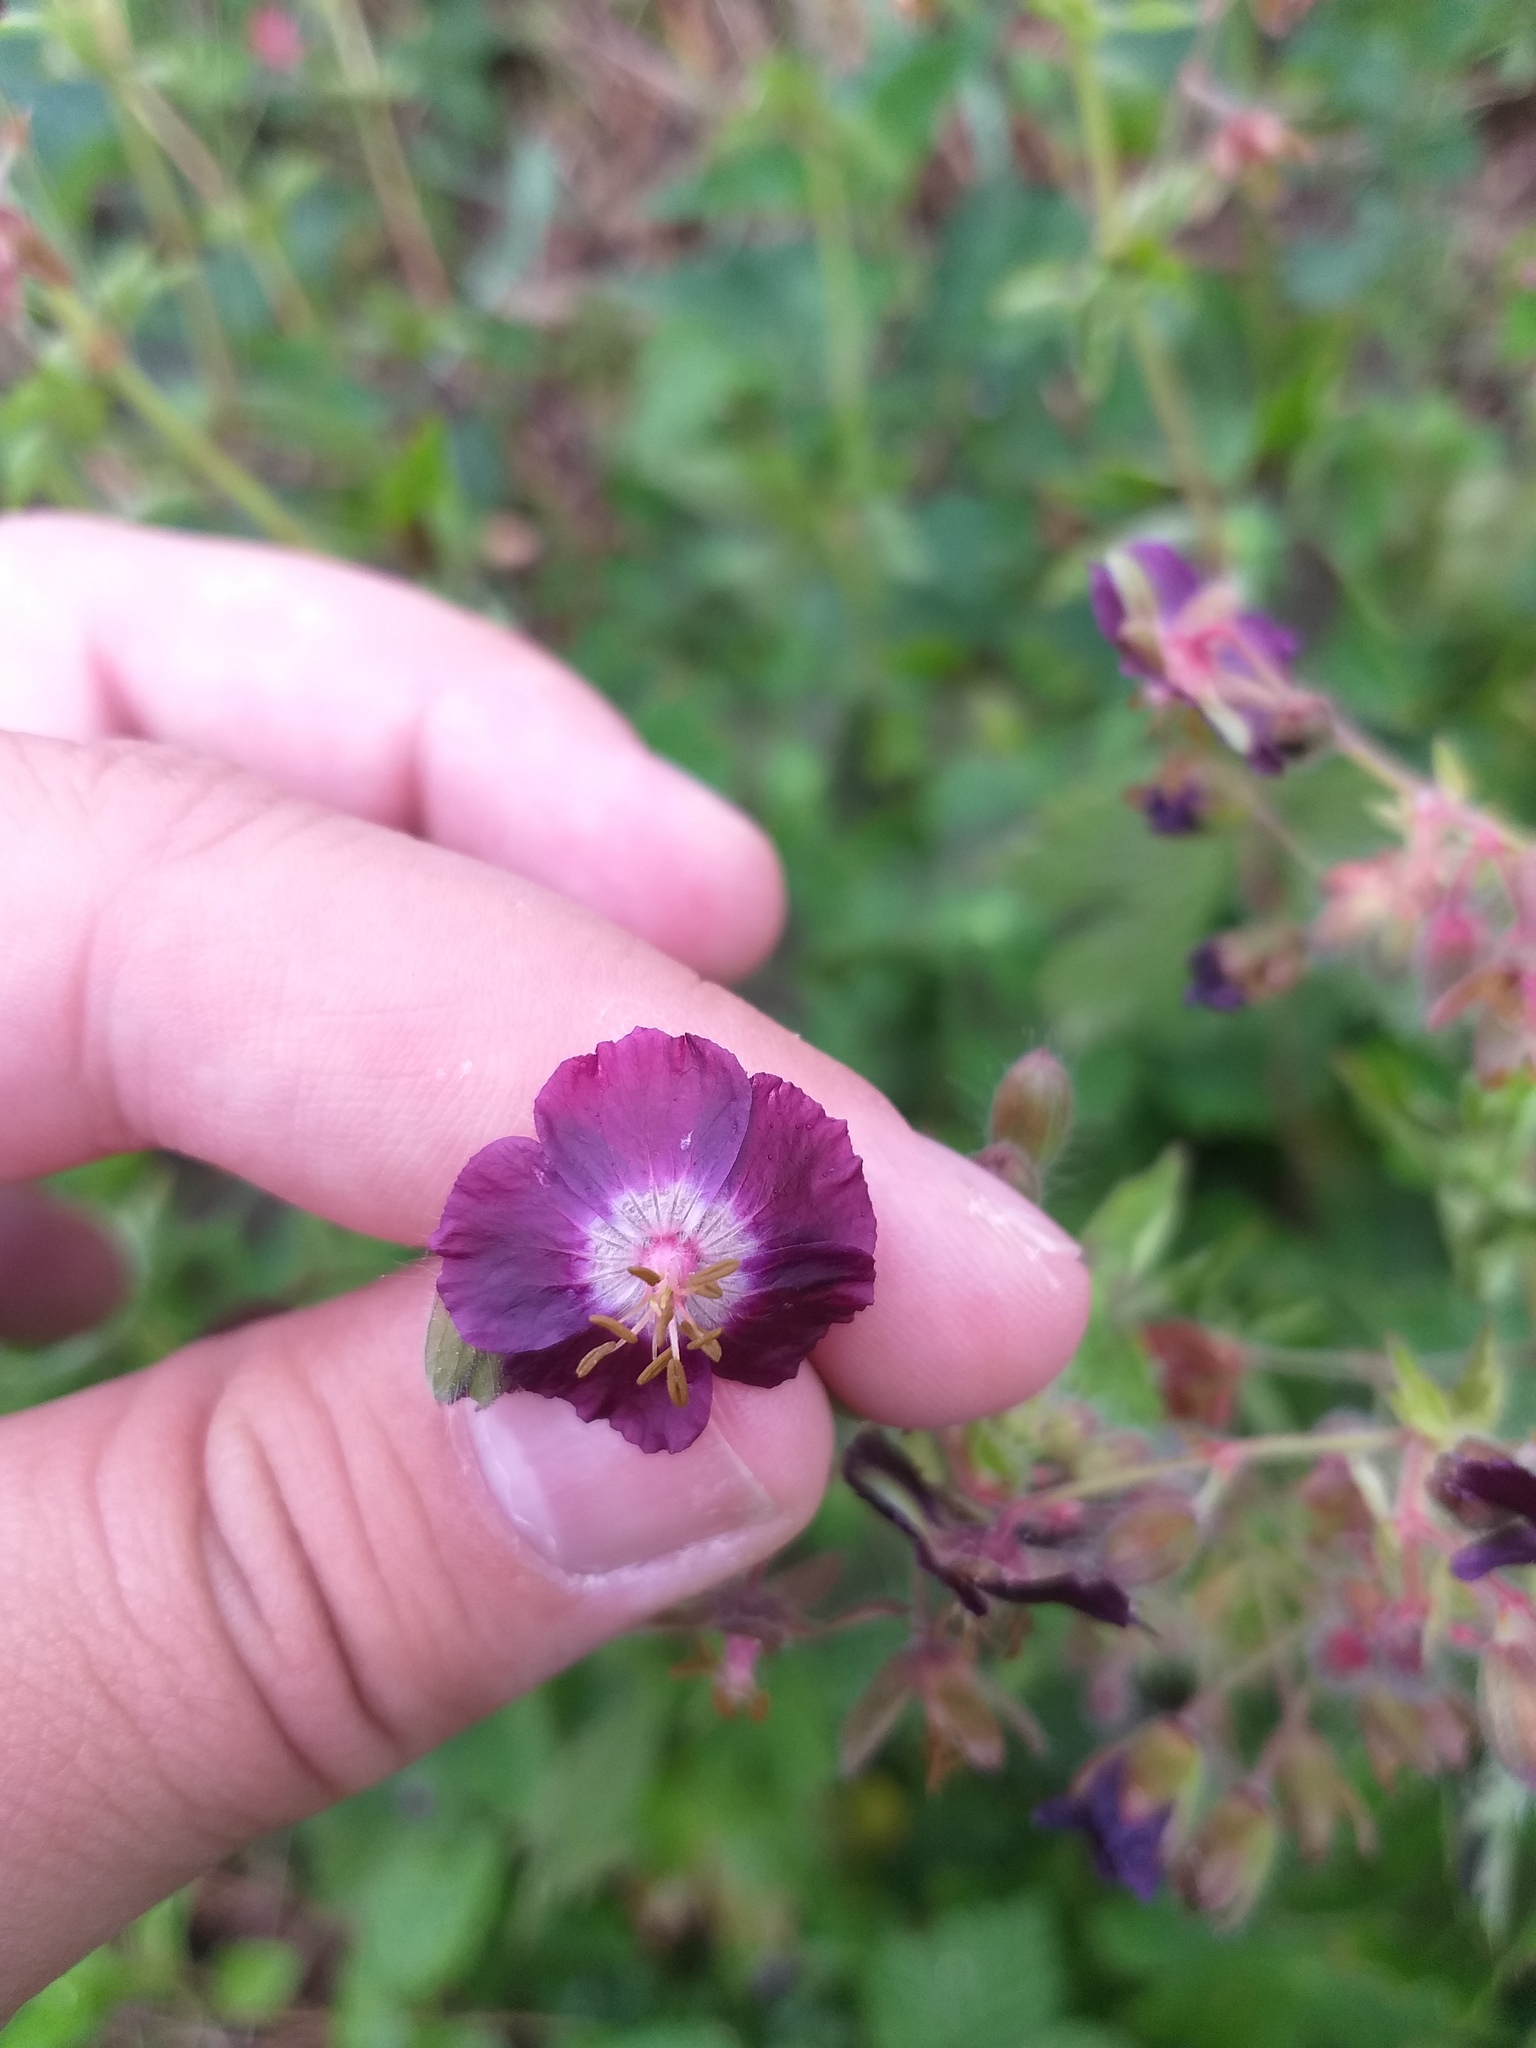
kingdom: Plantae
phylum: Tracheophyta
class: Magnoliopsida
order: Geraniales
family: Geraniaceae
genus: Geranium
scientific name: Geranium phaeum
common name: Dusky crane's-bill
